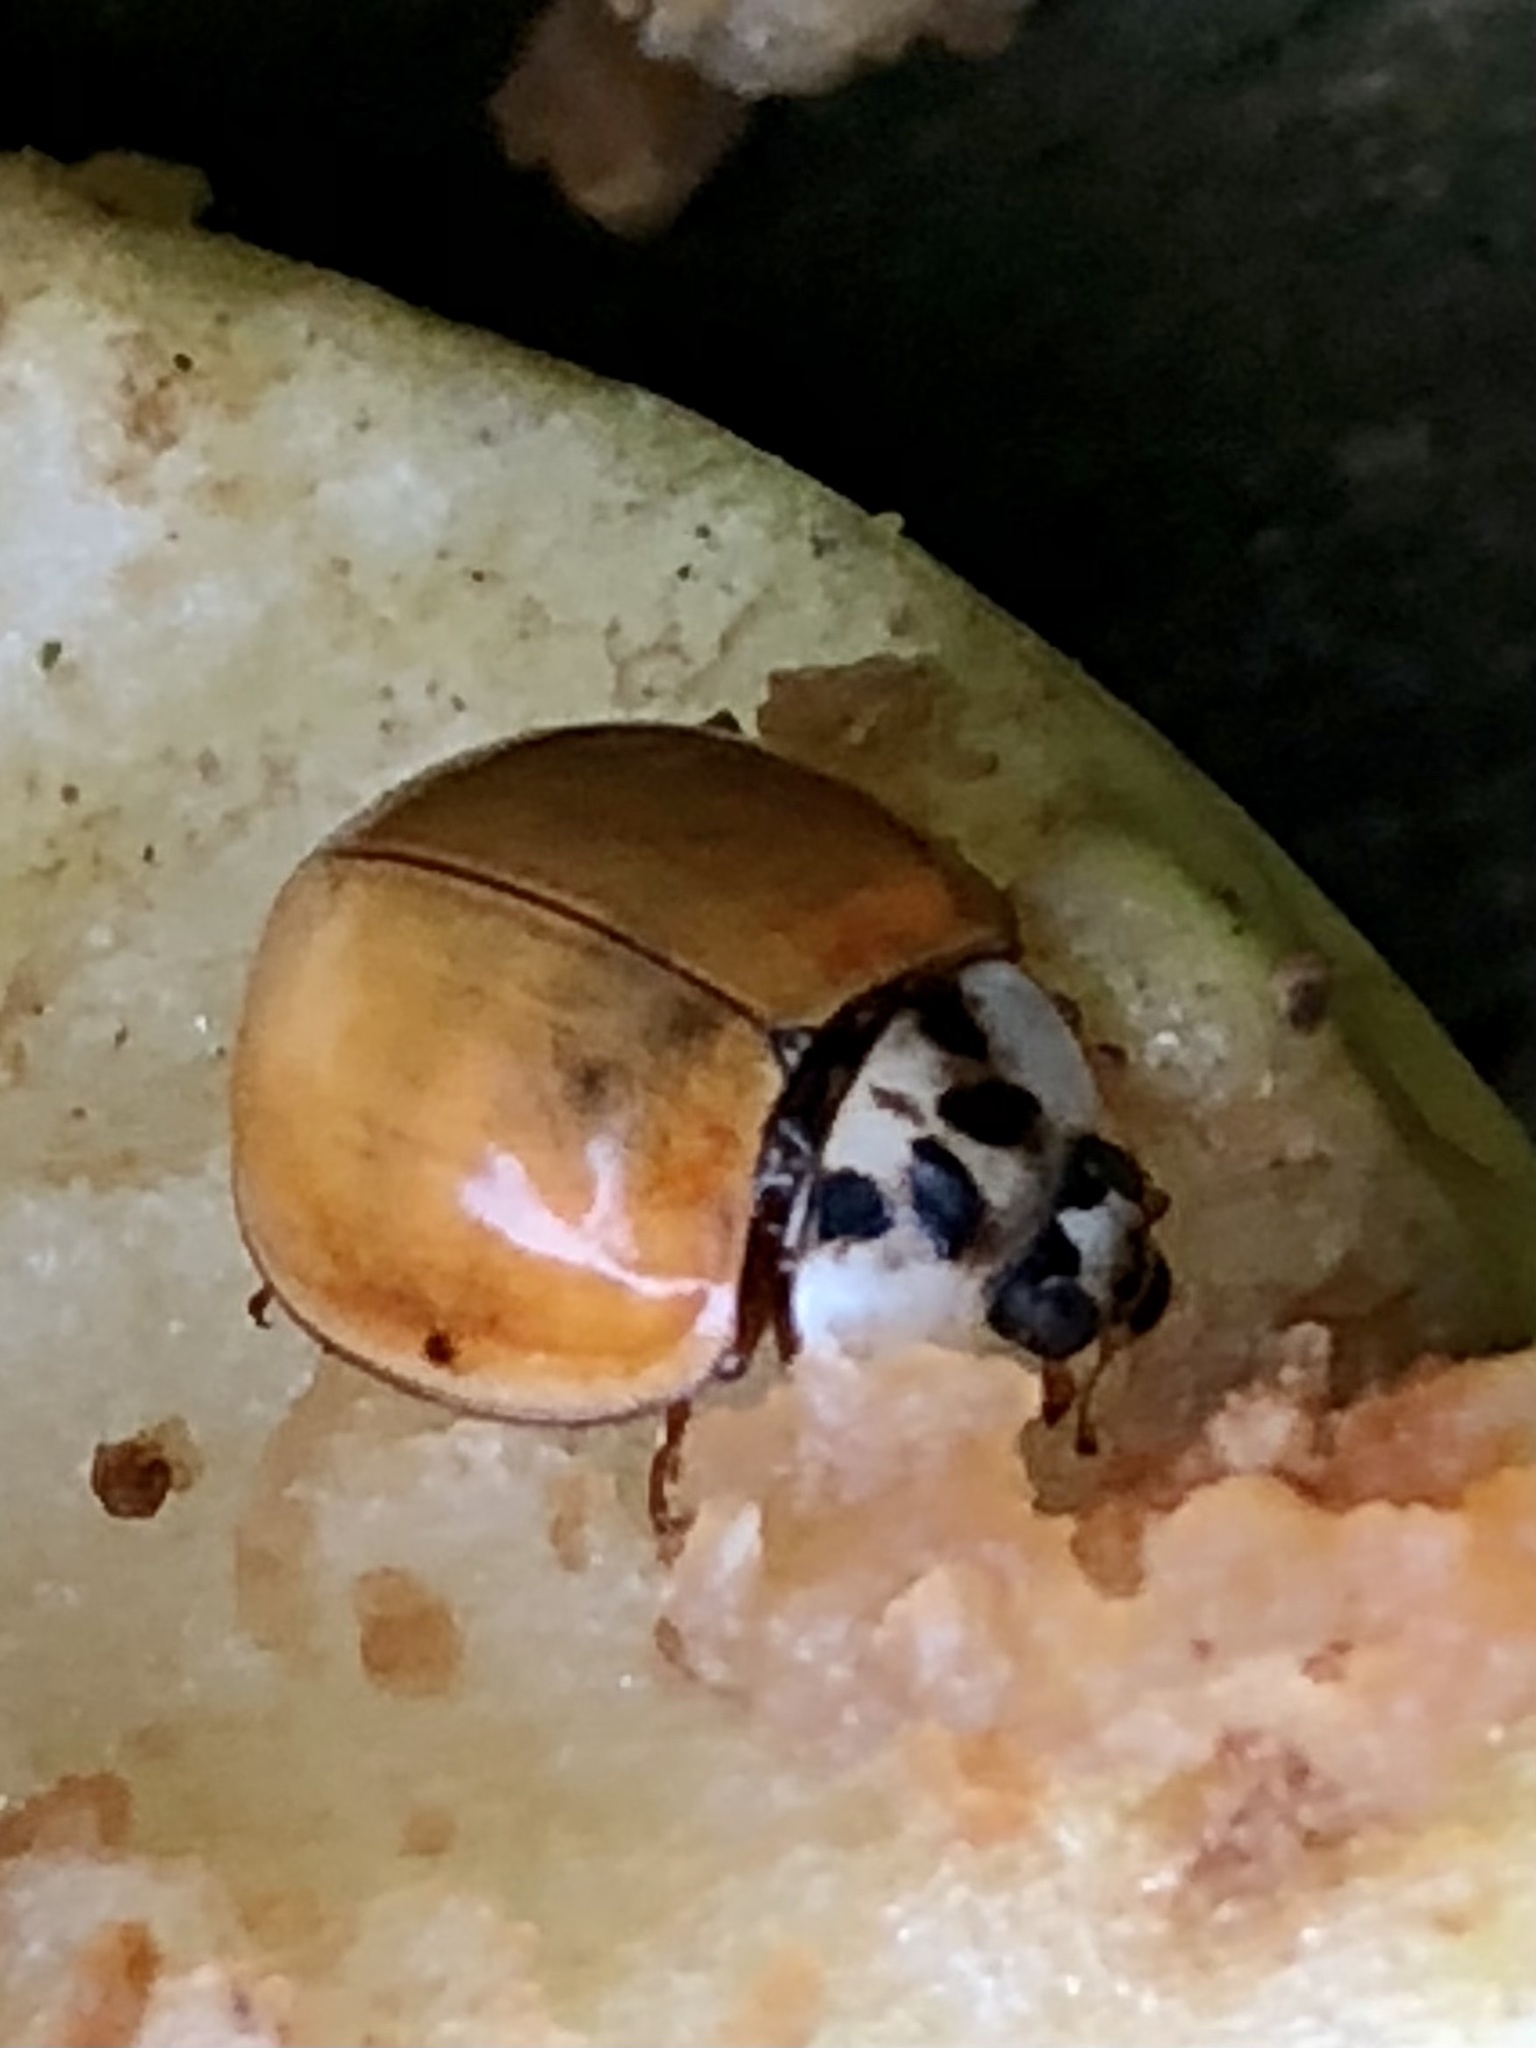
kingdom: Animalia
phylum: Arthropoda
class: Insecta
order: Coleoptera
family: Coccinellidae
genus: Harmonia
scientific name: Harmonia axyridis
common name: Harlequin ladybird
